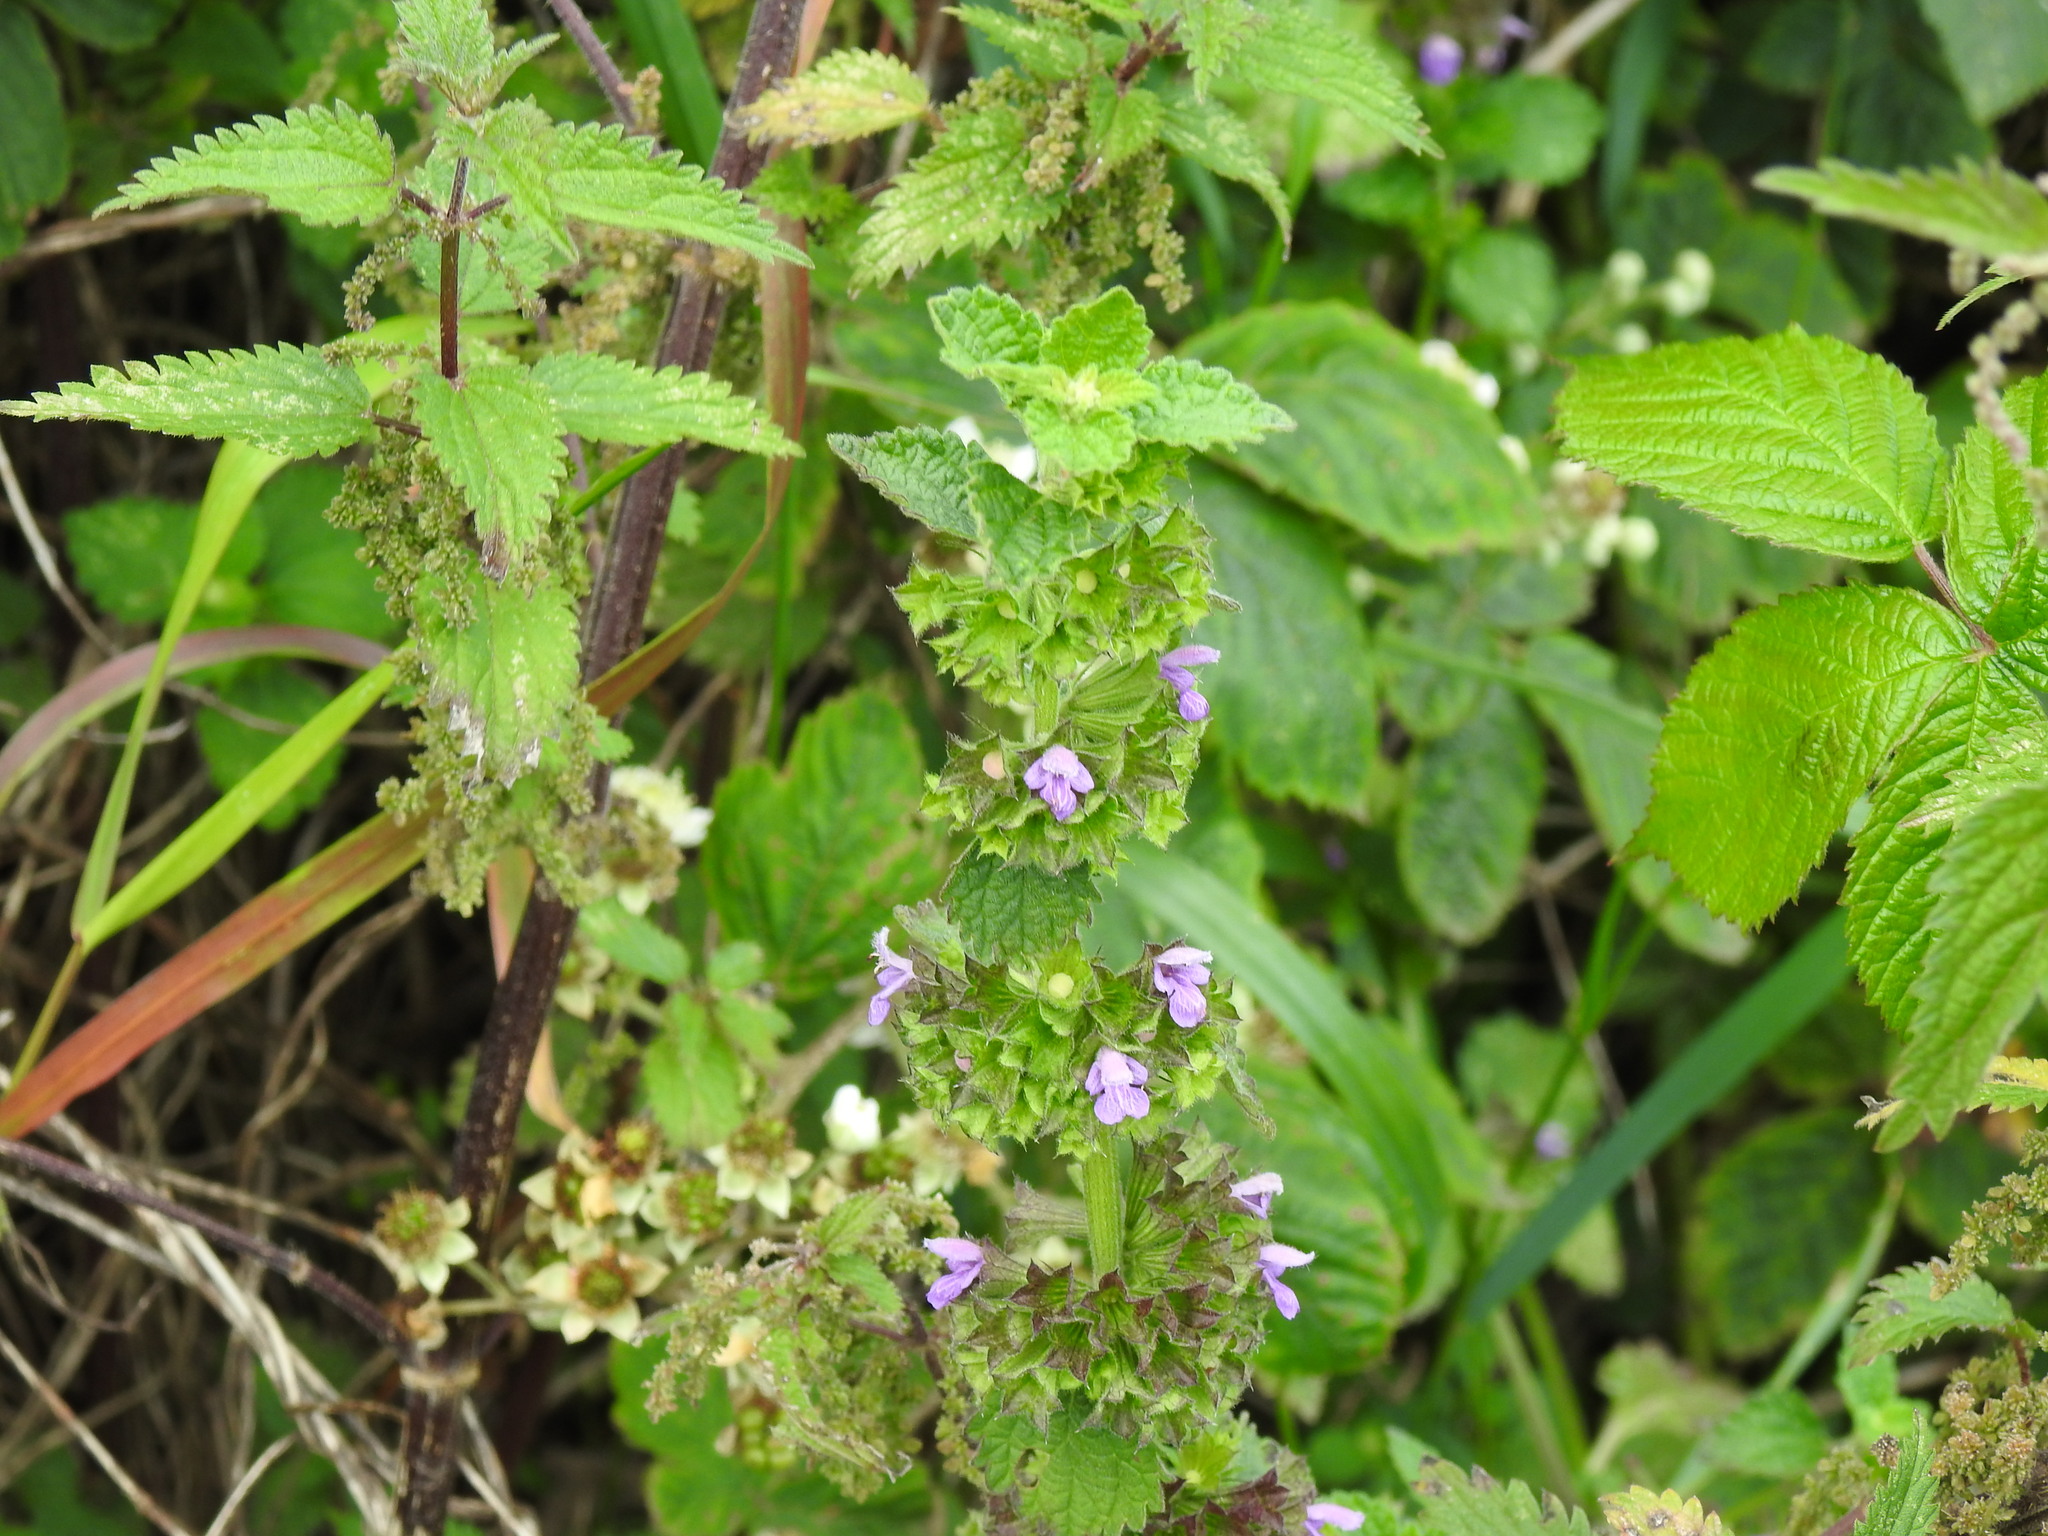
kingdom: Plantae
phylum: Tracheophyta
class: Magnoliopsida
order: Lamiales
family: Lamiaceae
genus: Ballota
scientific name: Ballota nigra
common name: Black horehound
